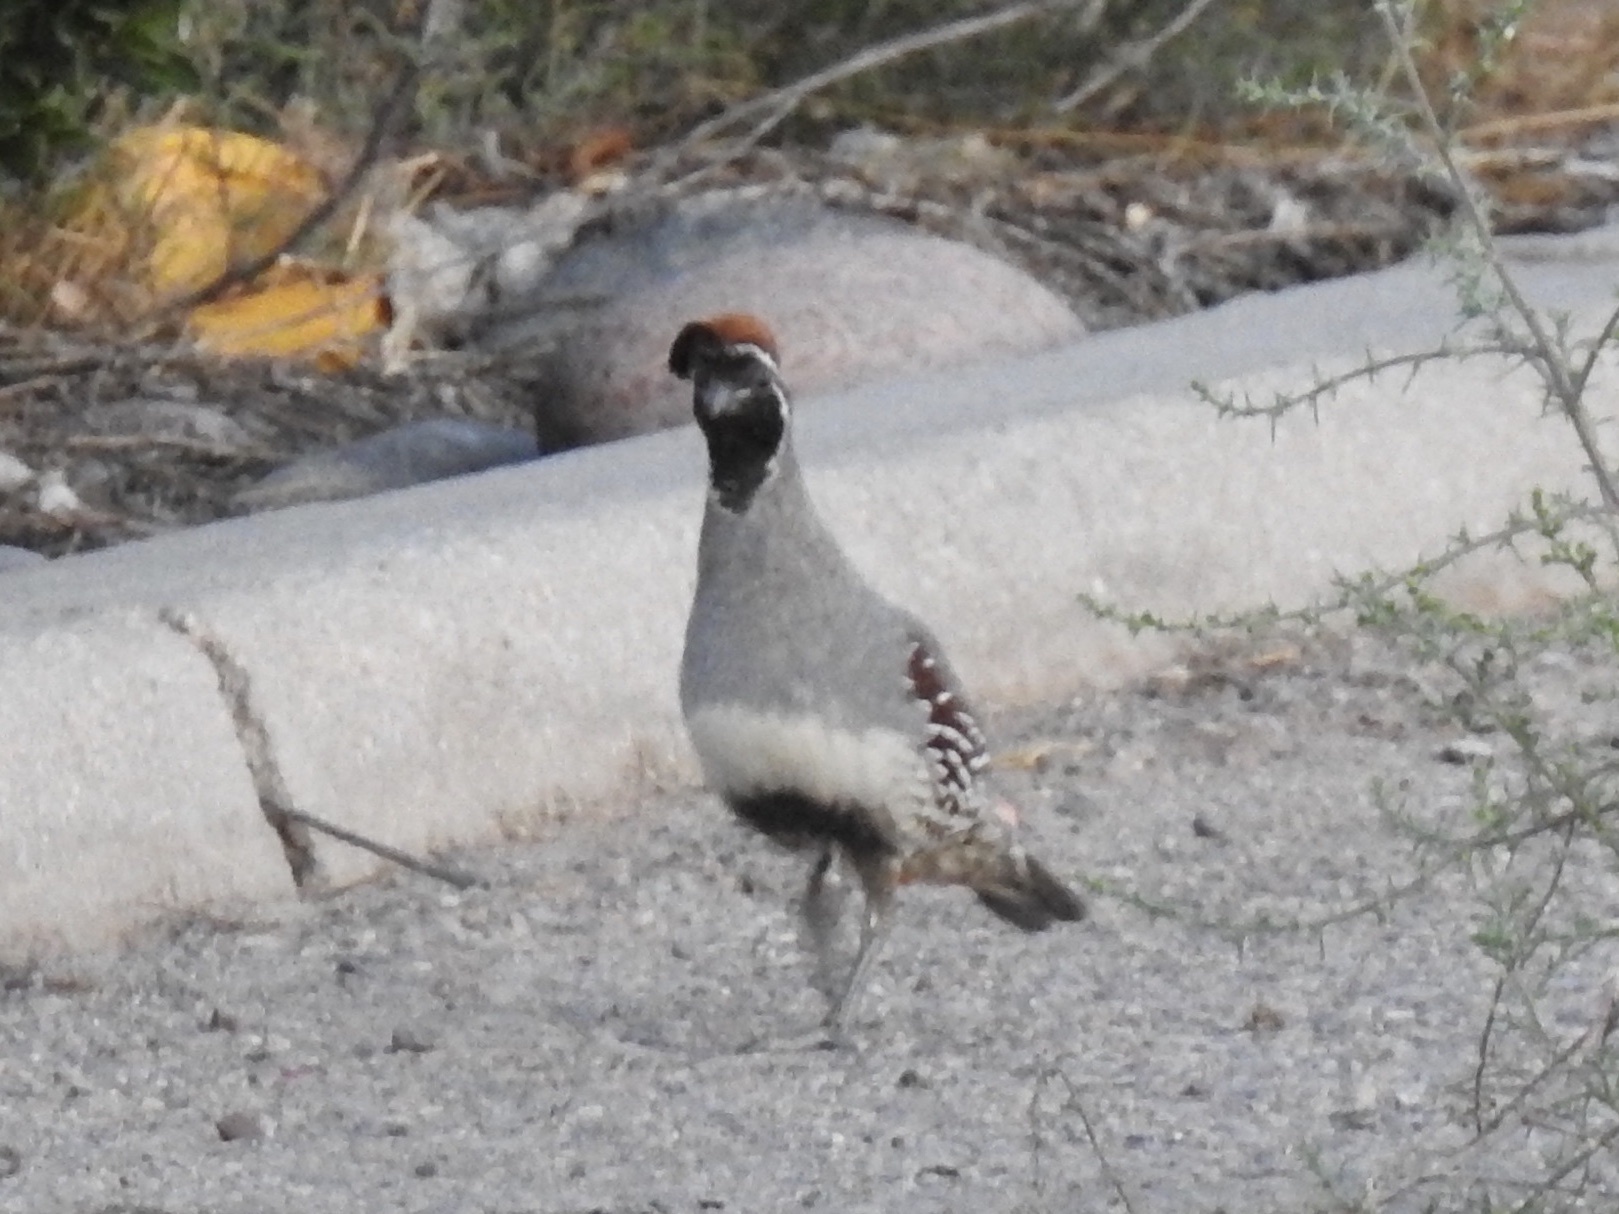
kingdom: Animalia
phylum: Chordata
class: Aves
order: Galliformes
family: Odontophoridae
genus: Callipepla
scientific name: Callipepla gambelii
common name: Gambel's quail
